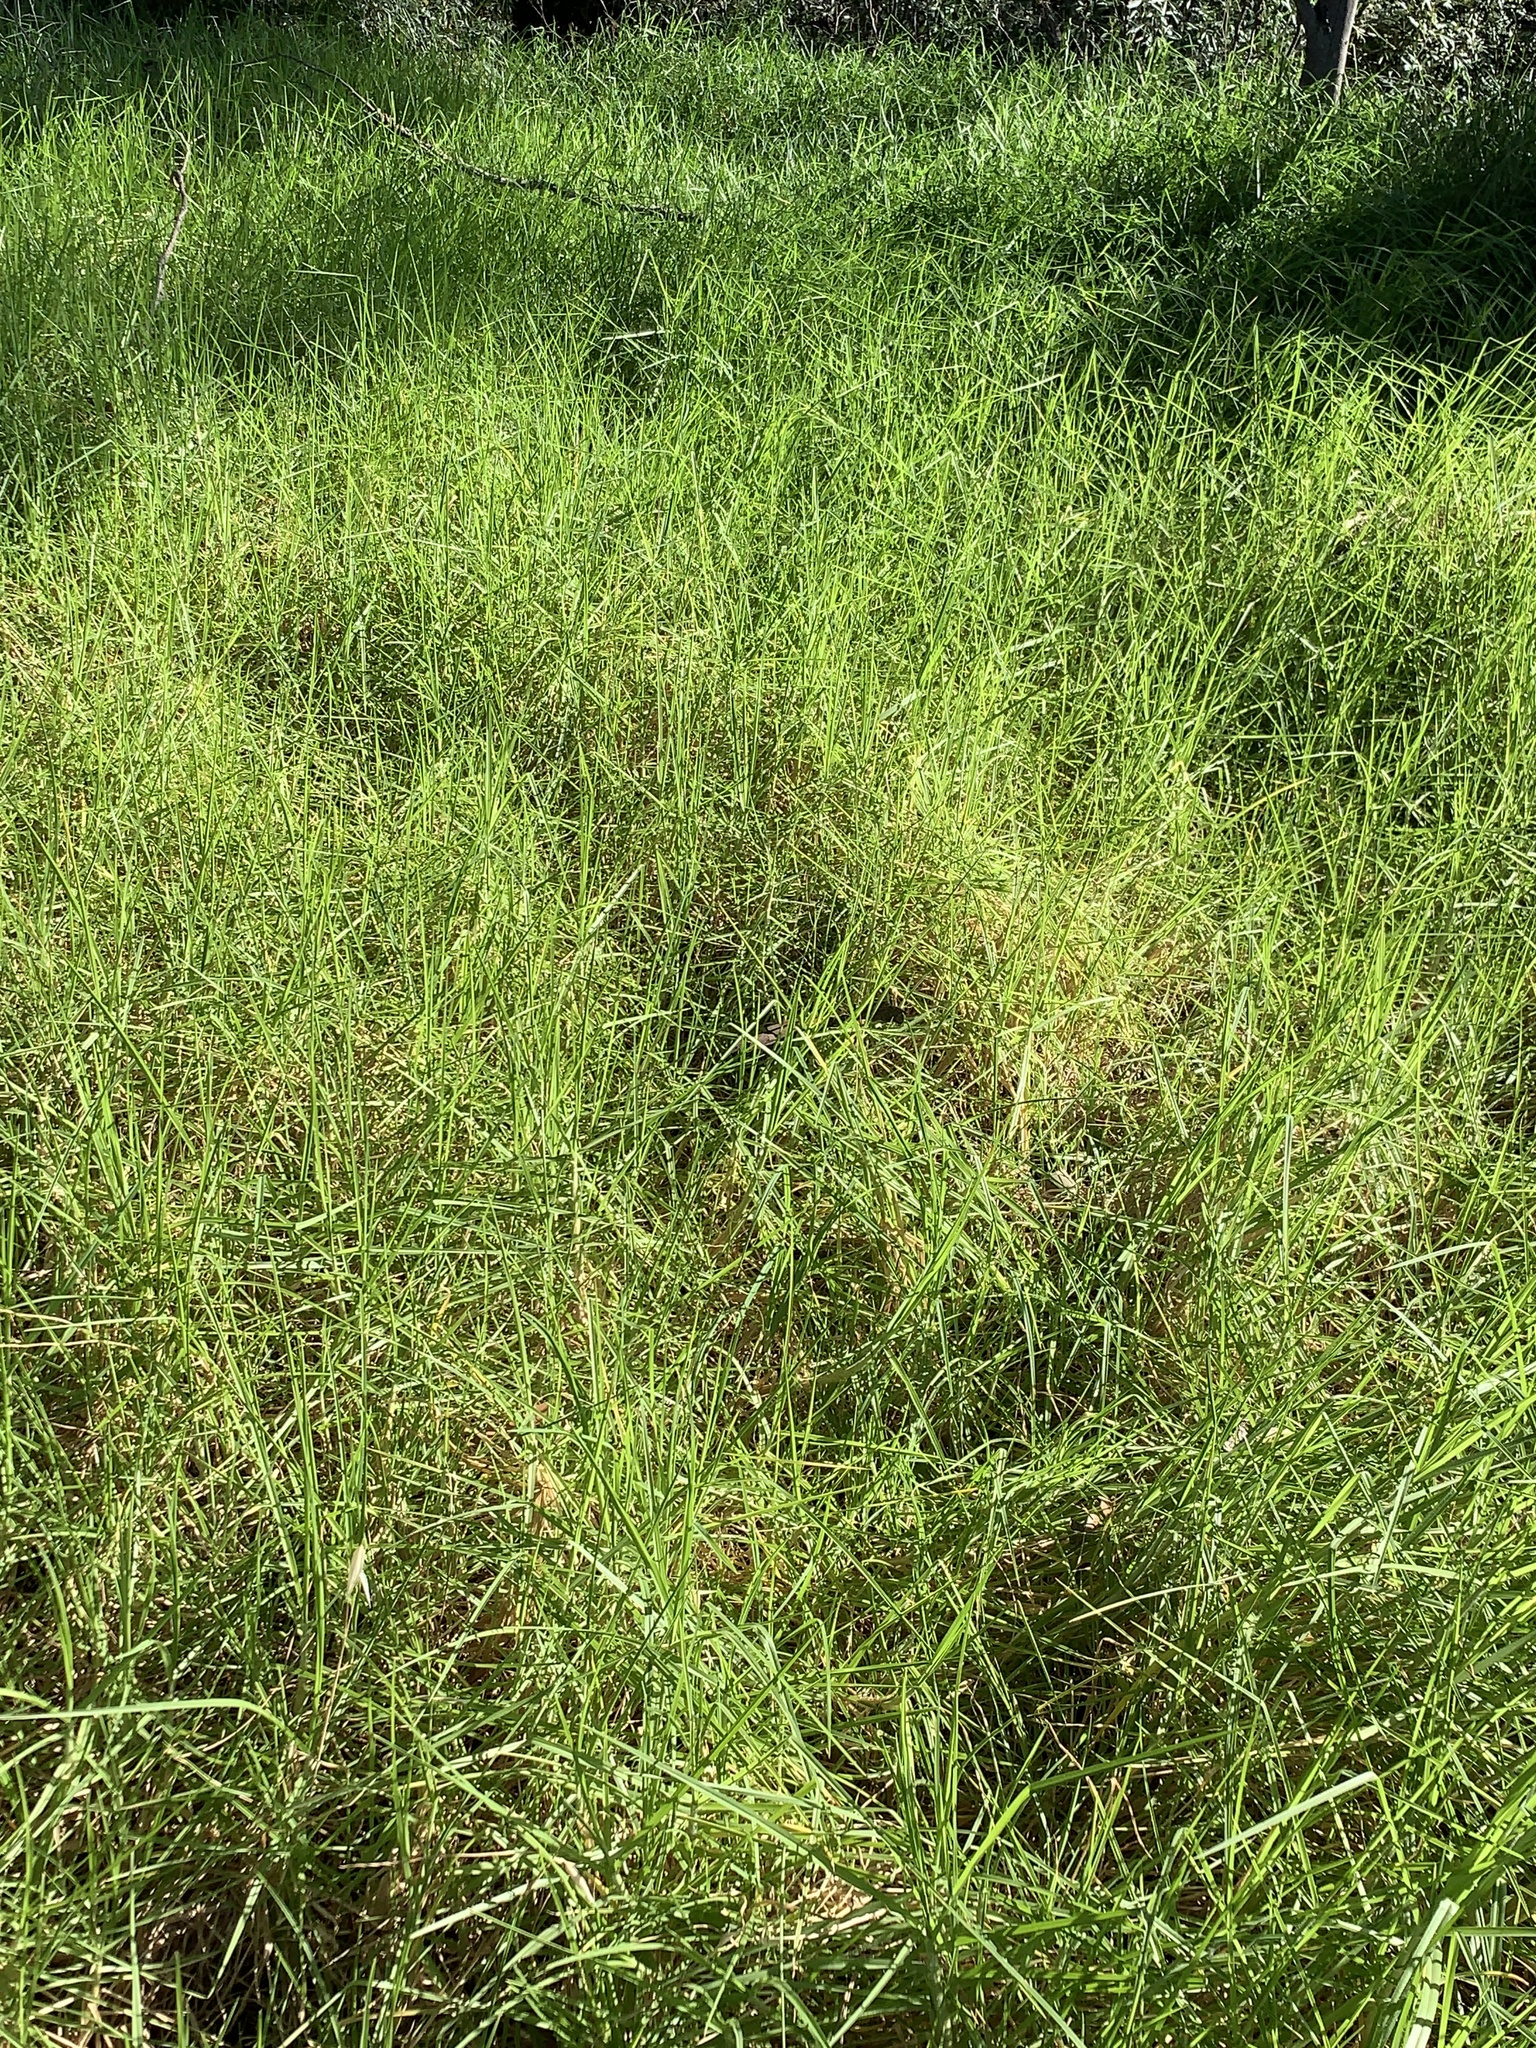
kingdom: Plantae
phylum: Tracheophyta
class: Liliopsida
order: Poales
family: Poaceae
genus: Cenchrus
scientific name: Cenchrus clandestinus
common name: Kikuyugrass
